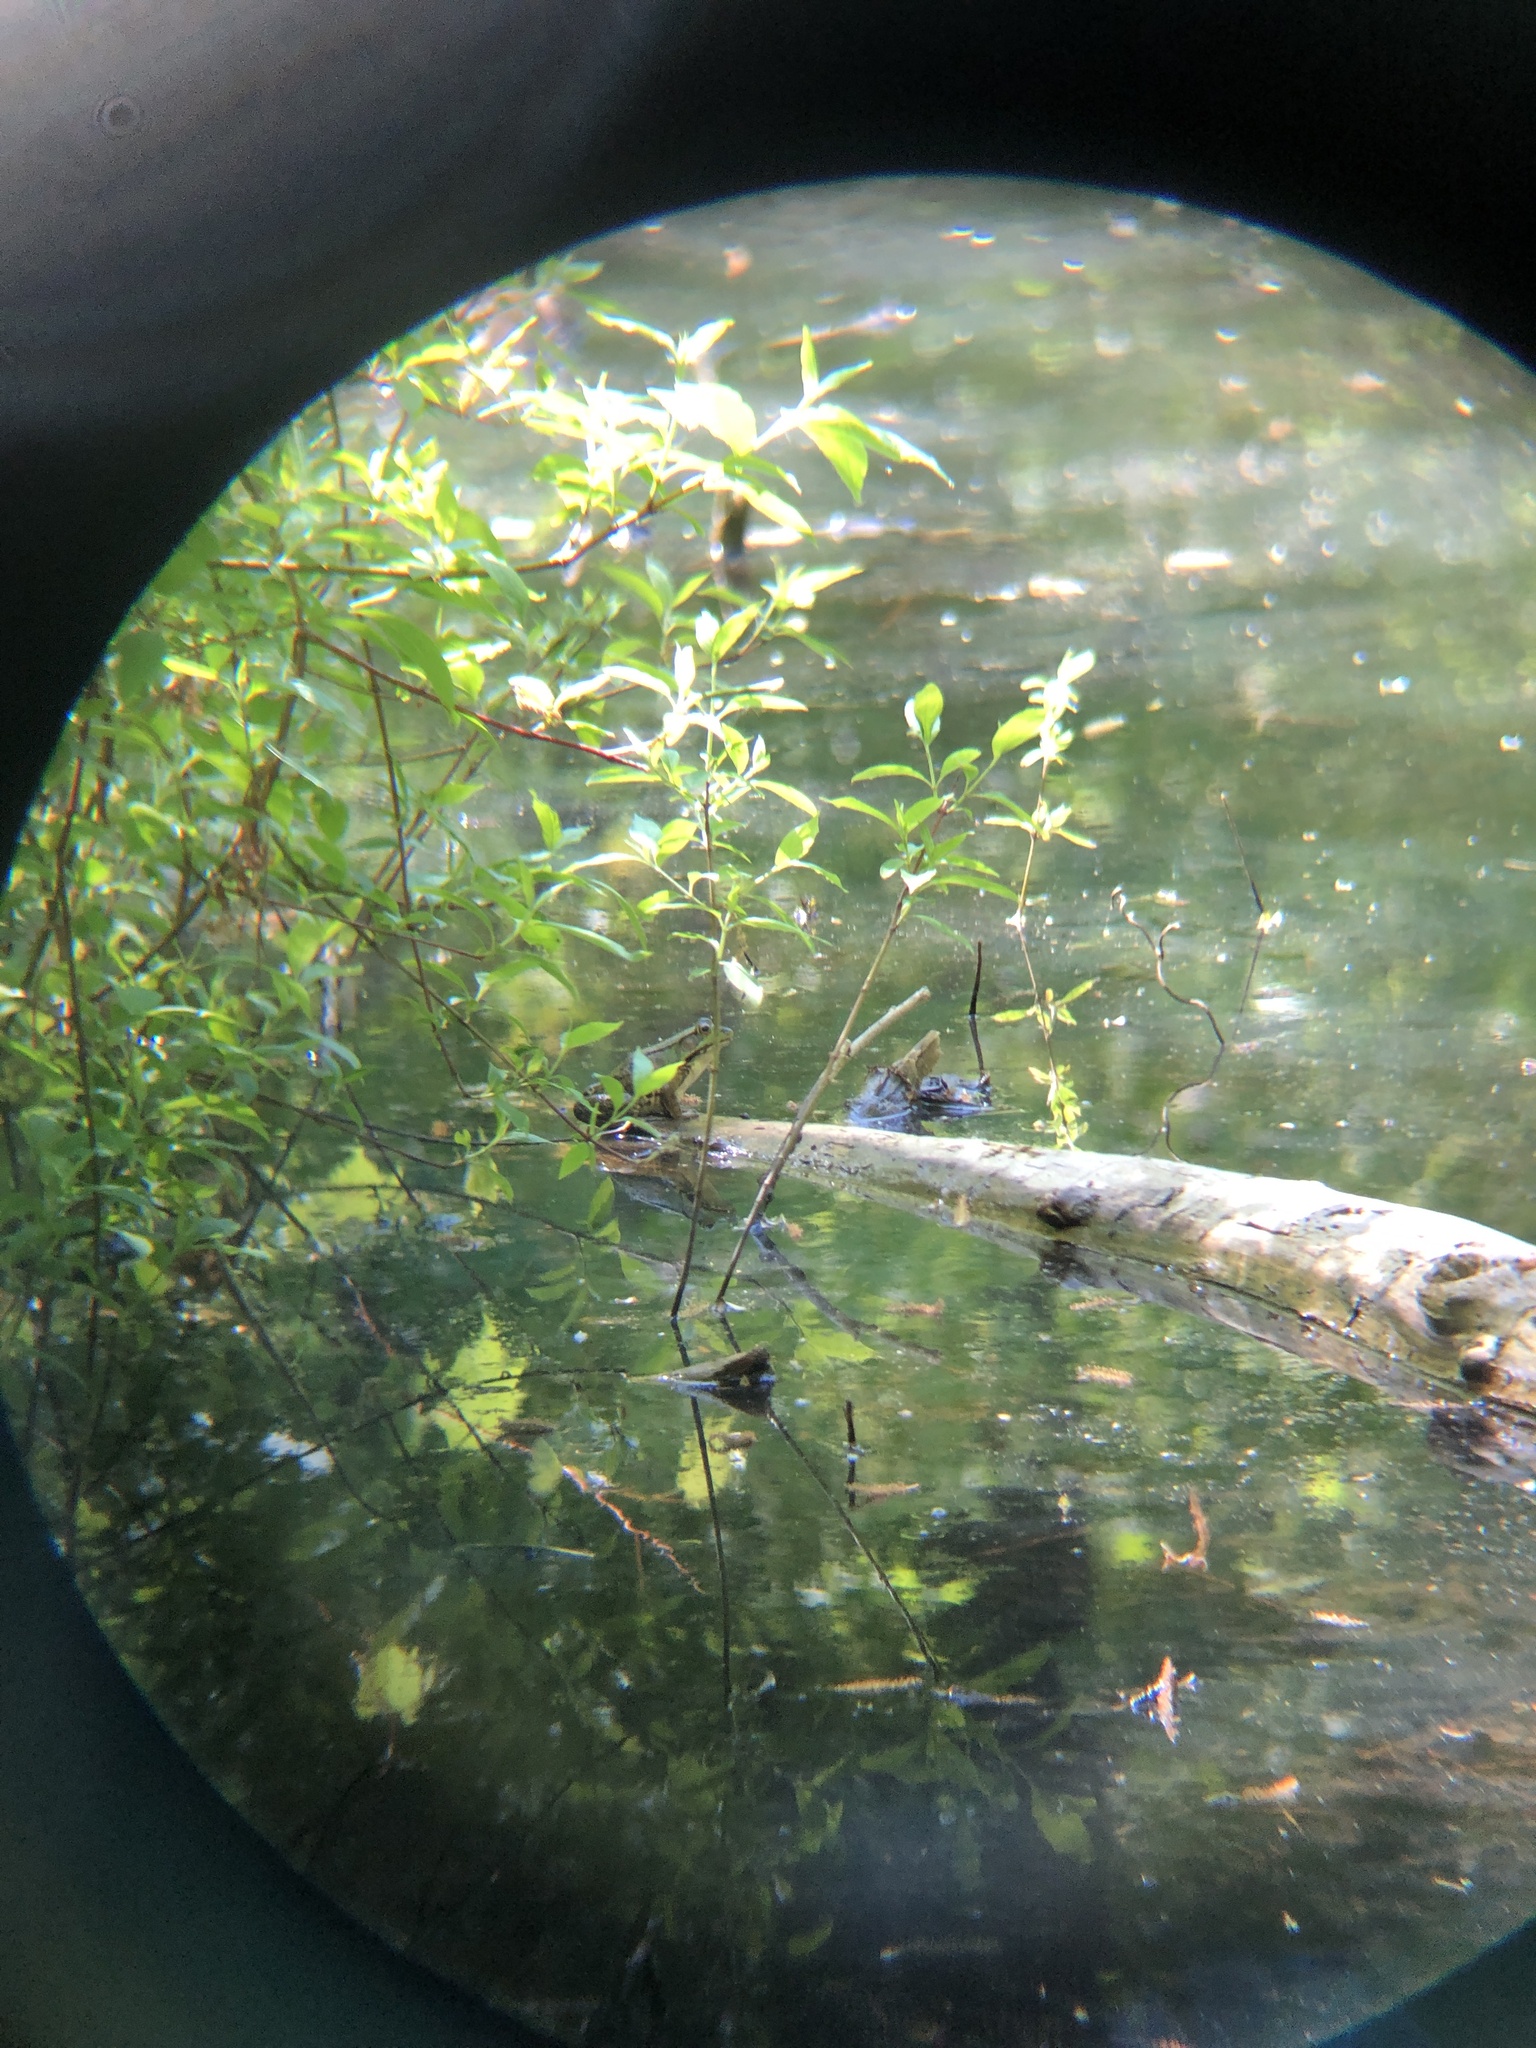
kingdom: Animalia
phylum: Chordata
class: Amphibia
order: Anura
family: Ranidae
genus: Lithobates
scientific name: Lithobates clamitans
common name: Green frog
